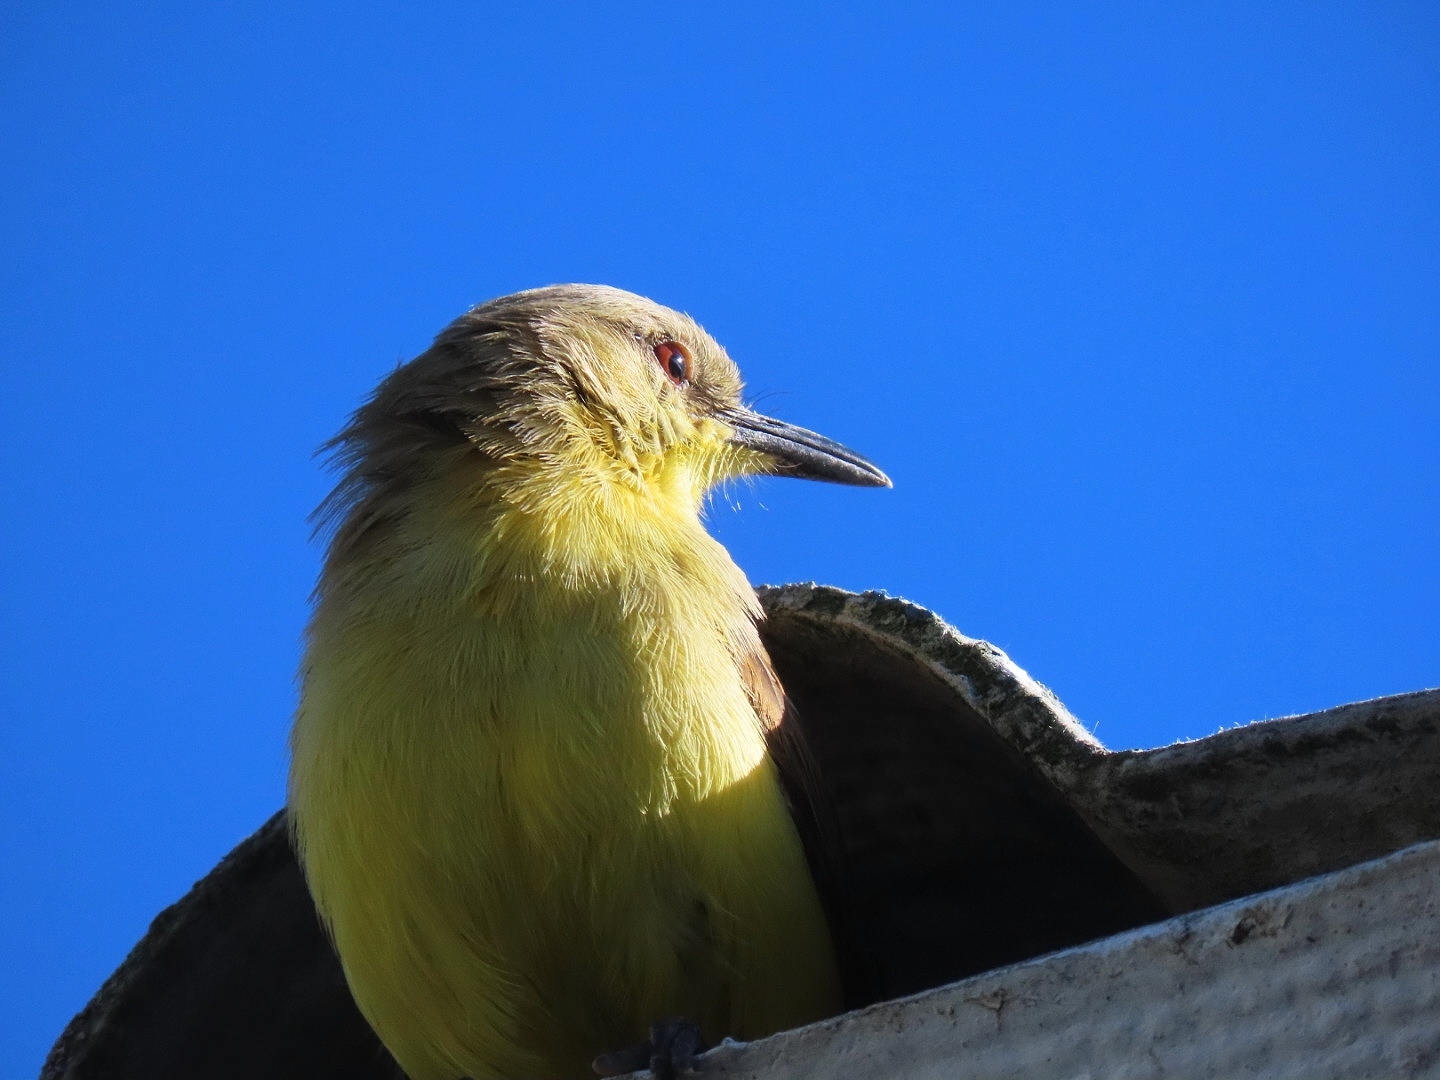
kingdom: Animalia
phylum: Chordata
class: Aves
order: Passeriformes
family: Tyrannidae
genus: Machetornis
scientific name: Machetornis rixosa
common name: Cattle tyrant
